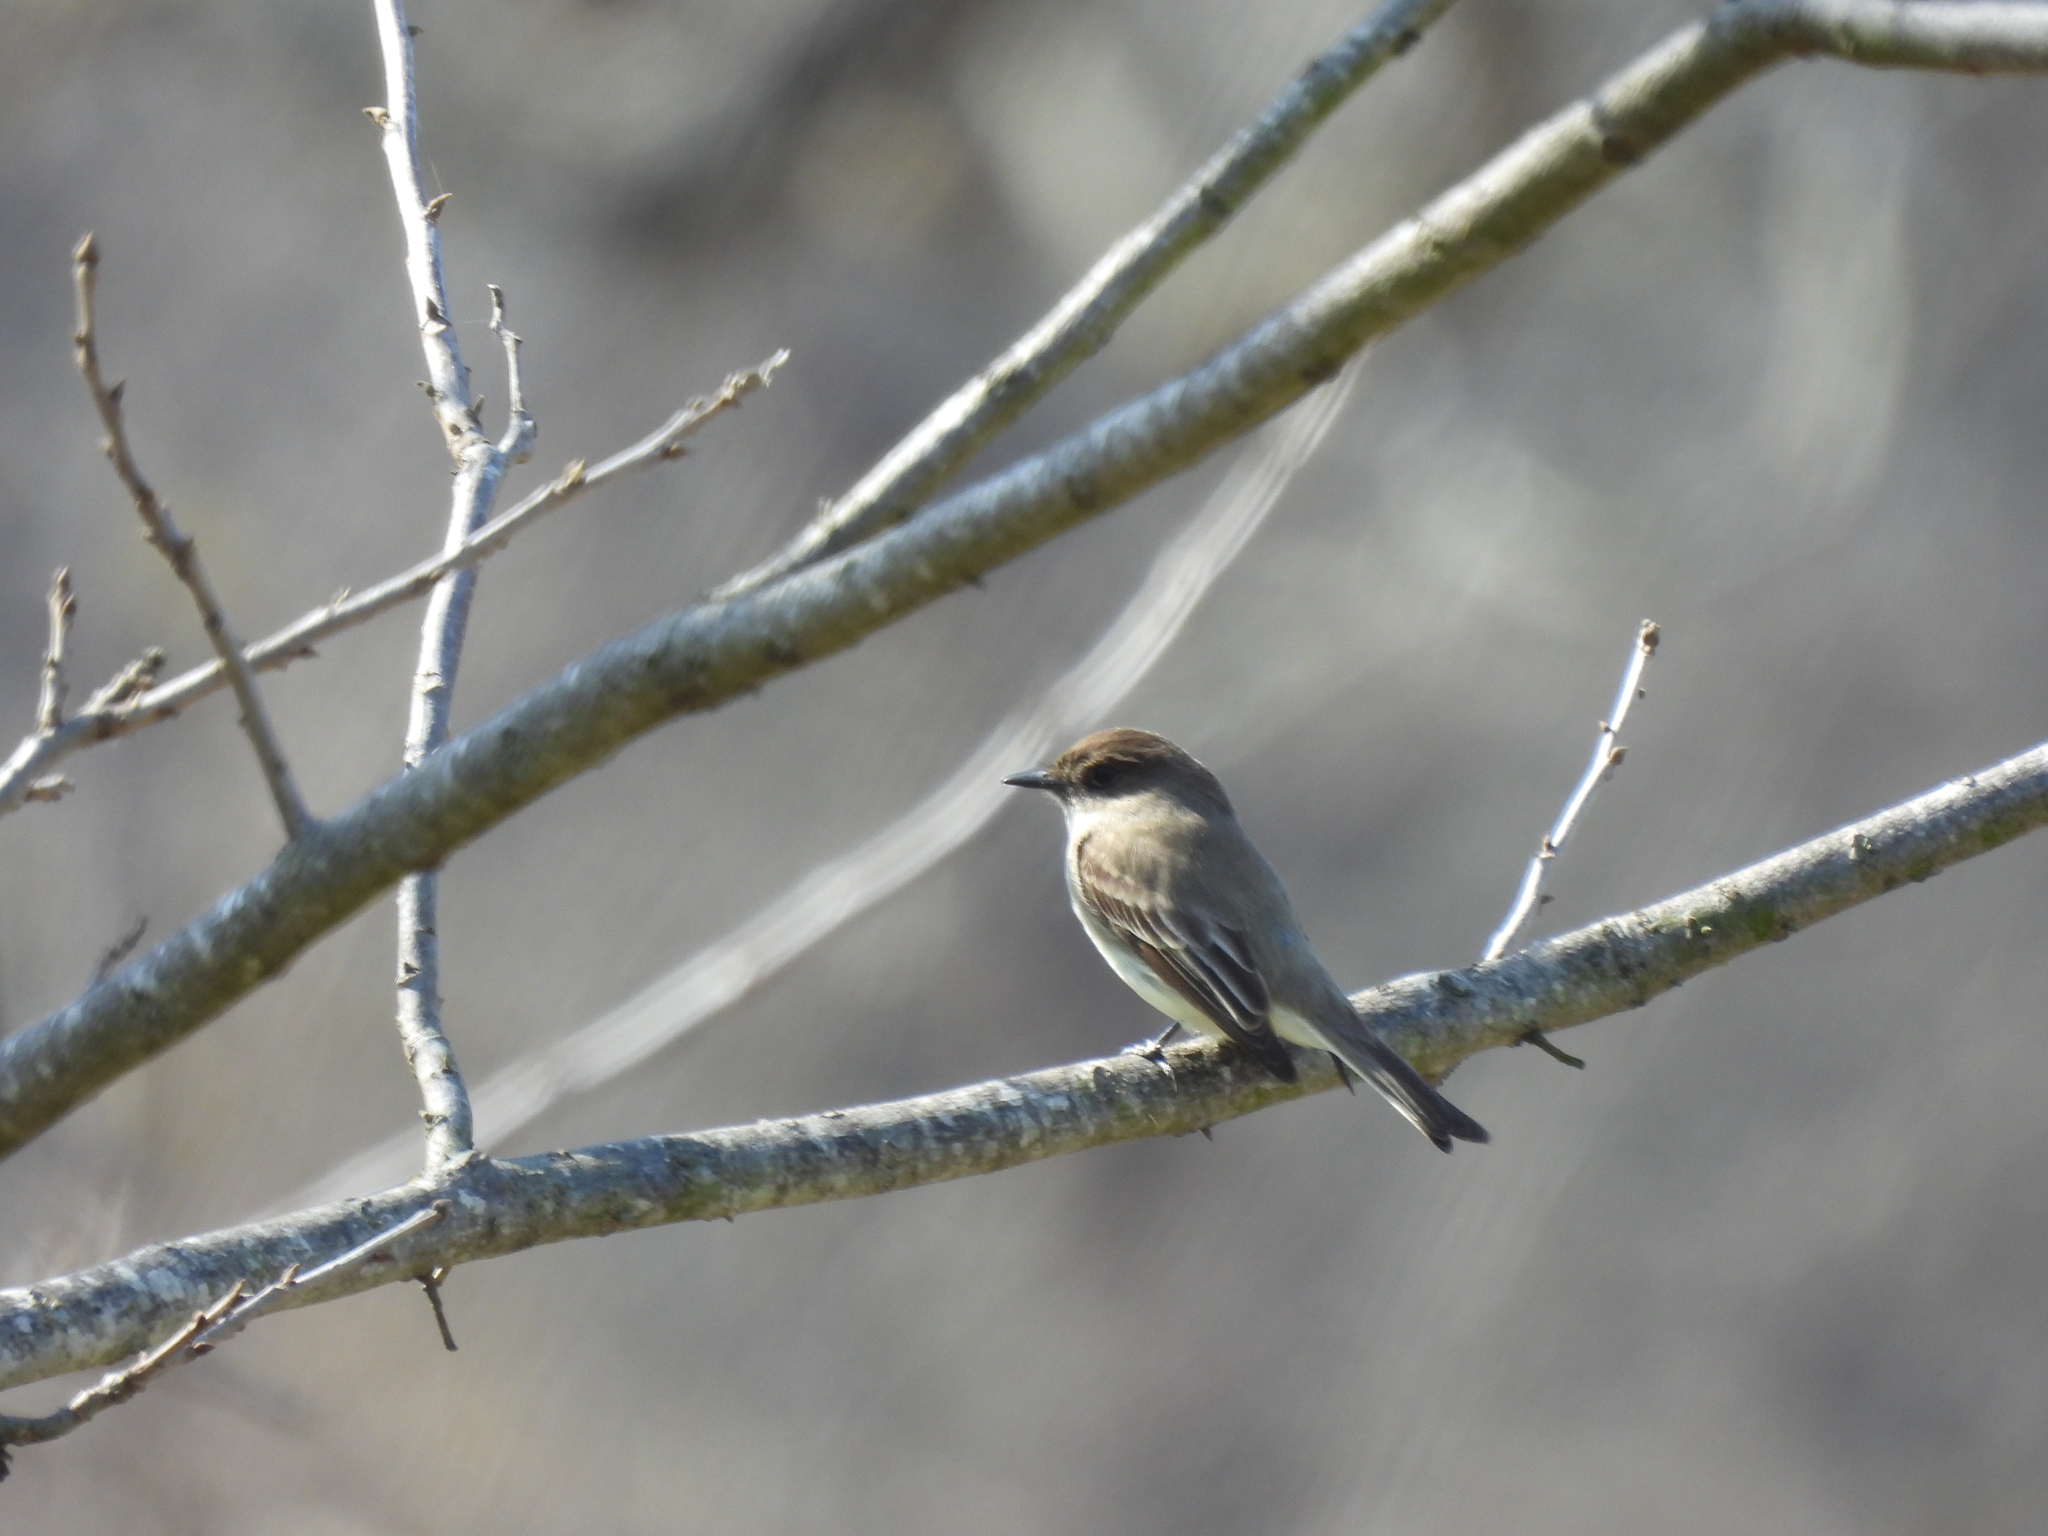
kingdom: Animalia
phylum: Chordata
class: Aves
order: Passeriformes
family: Tyrannidae
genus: Sayornis
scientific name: Sayornis phoebe
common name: Eastern phoebe
